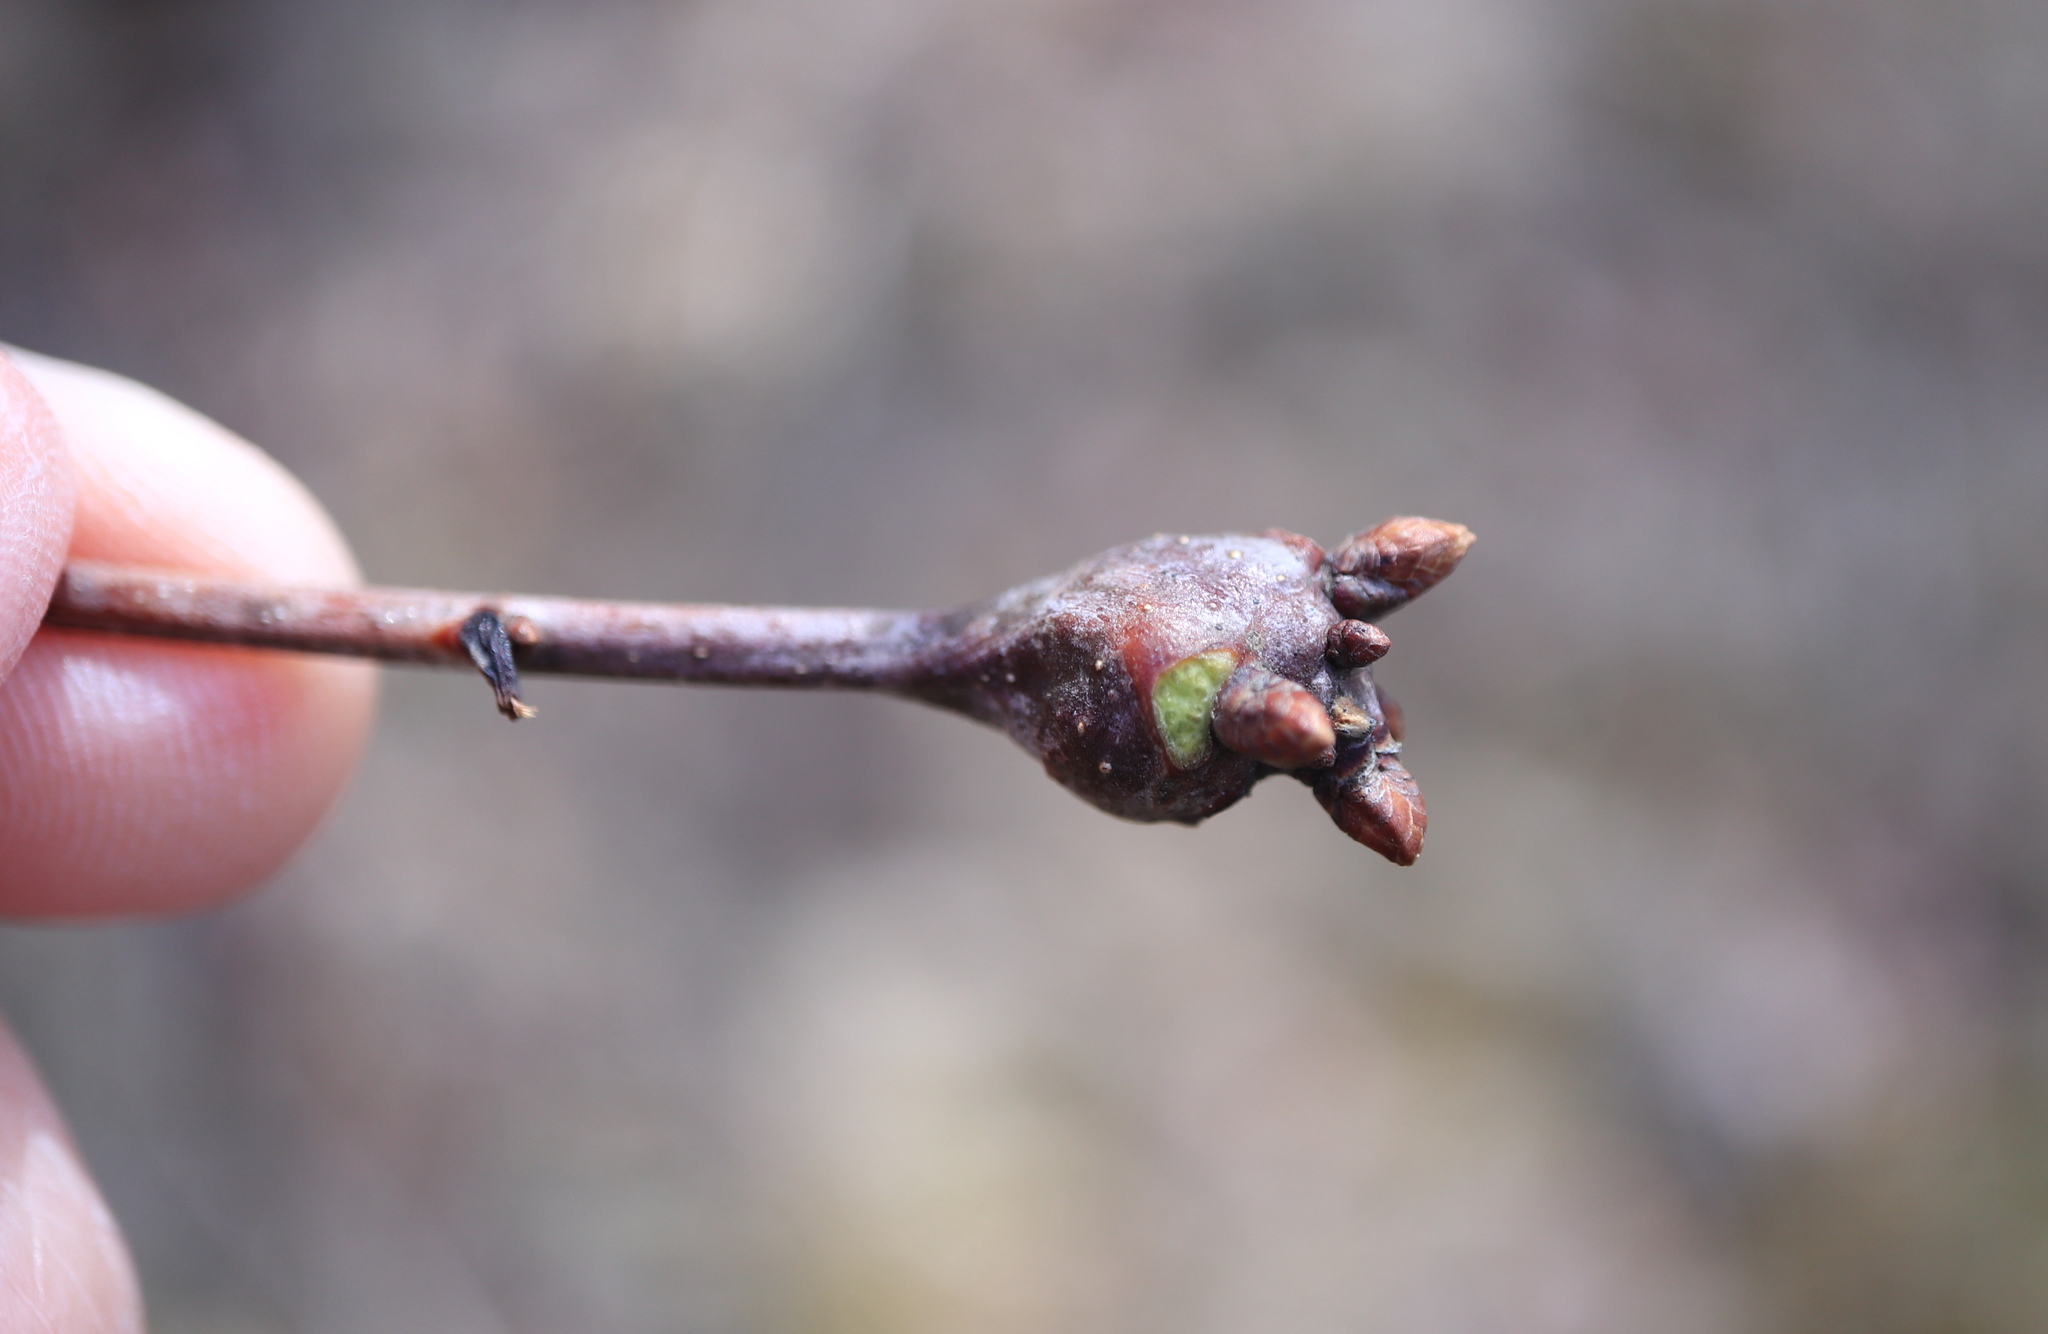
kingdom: Animalia
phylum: Arthropoda
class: Insecta
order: Hymenoptera
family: Cynipidae
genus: Callirhytis
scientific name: Callirhytis clavula
